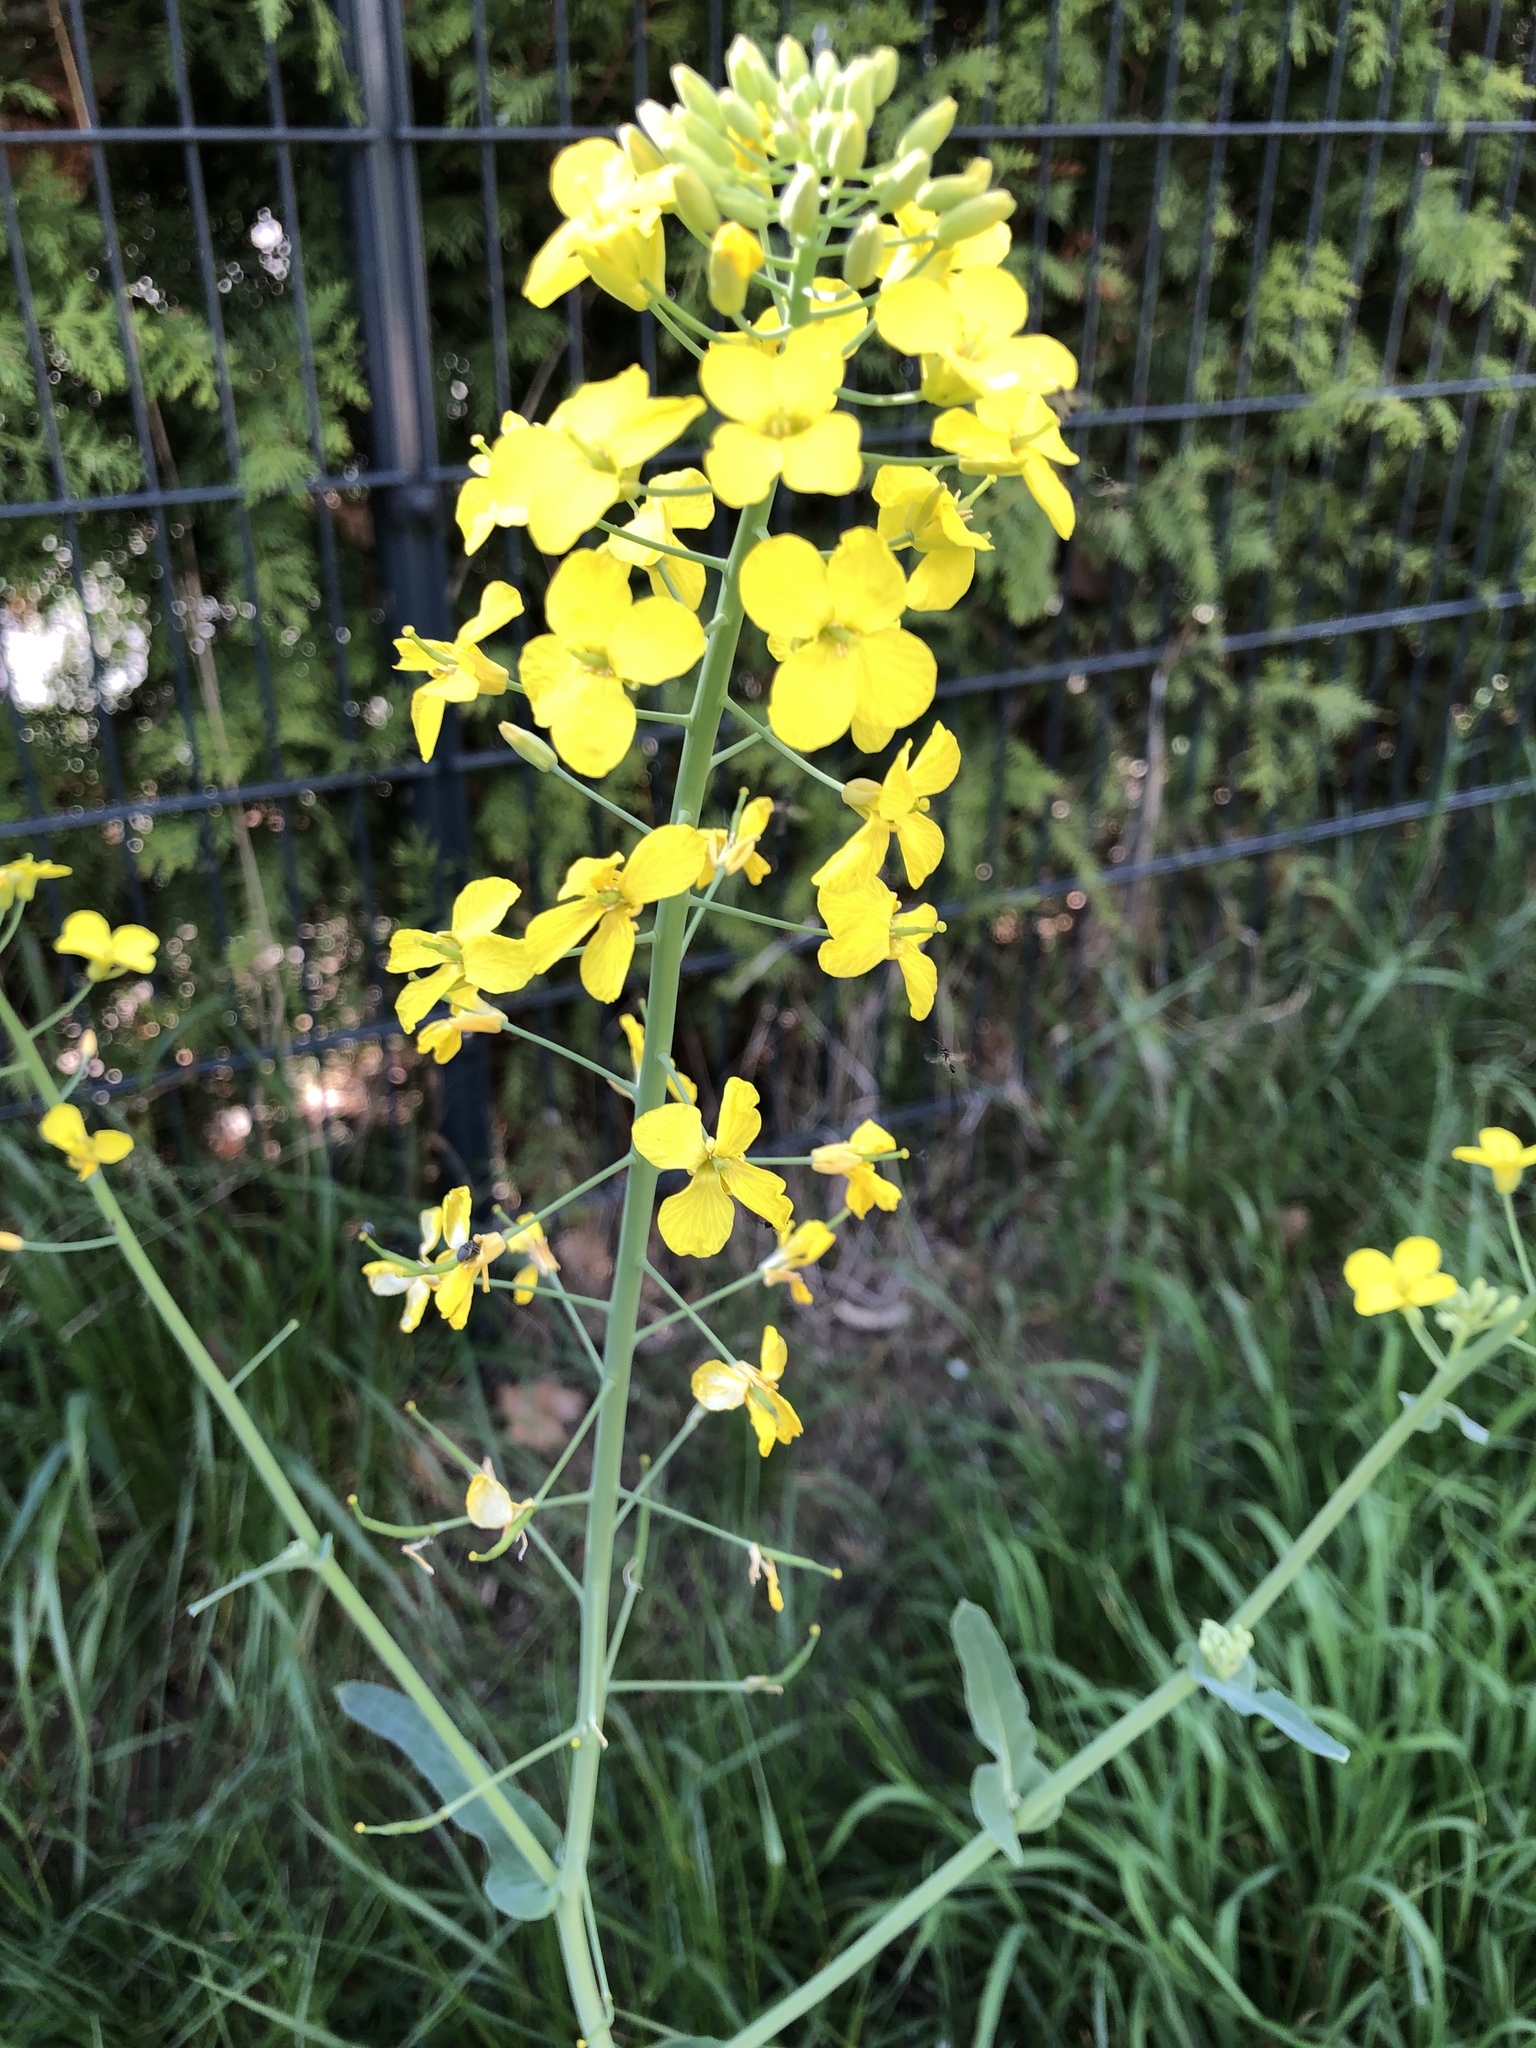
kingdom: Plantae
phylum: Tracheophyta
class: Magnoliopsida
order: Brassicales
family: Brassicaceae
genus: Brassica
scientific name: Brassica napus
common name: Rape
